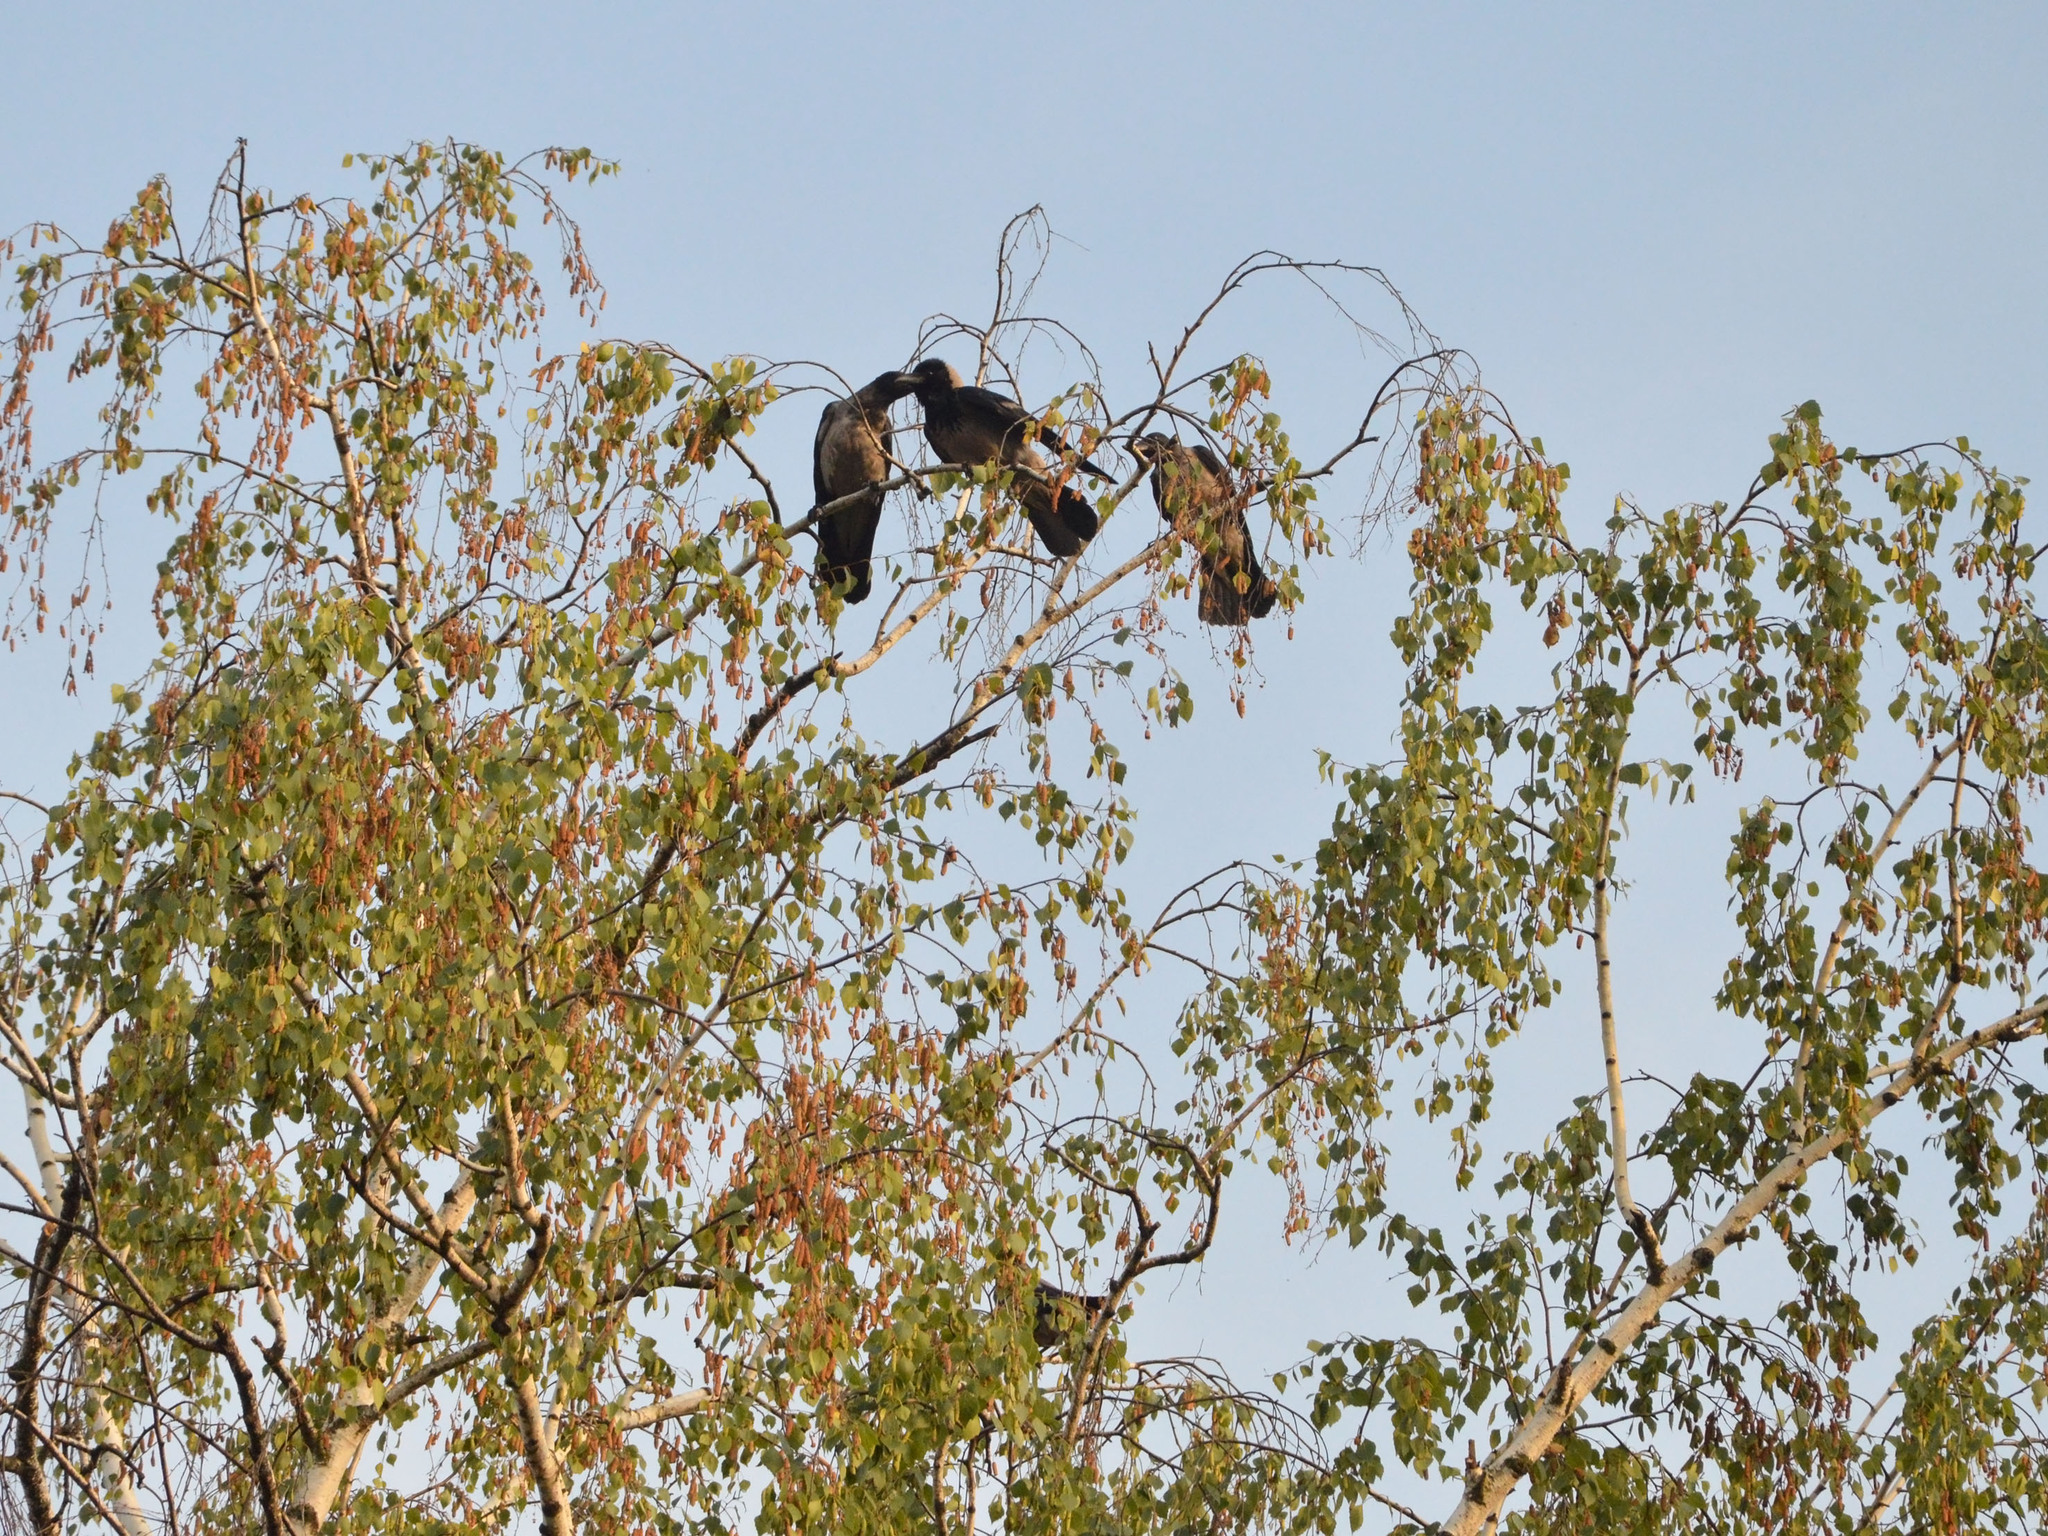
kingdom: Animalia
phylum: Chordata
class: Aves
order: Passeriformes
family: Corvidae
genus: Corvus
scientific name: Corvus cornix
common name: Hooded crow
